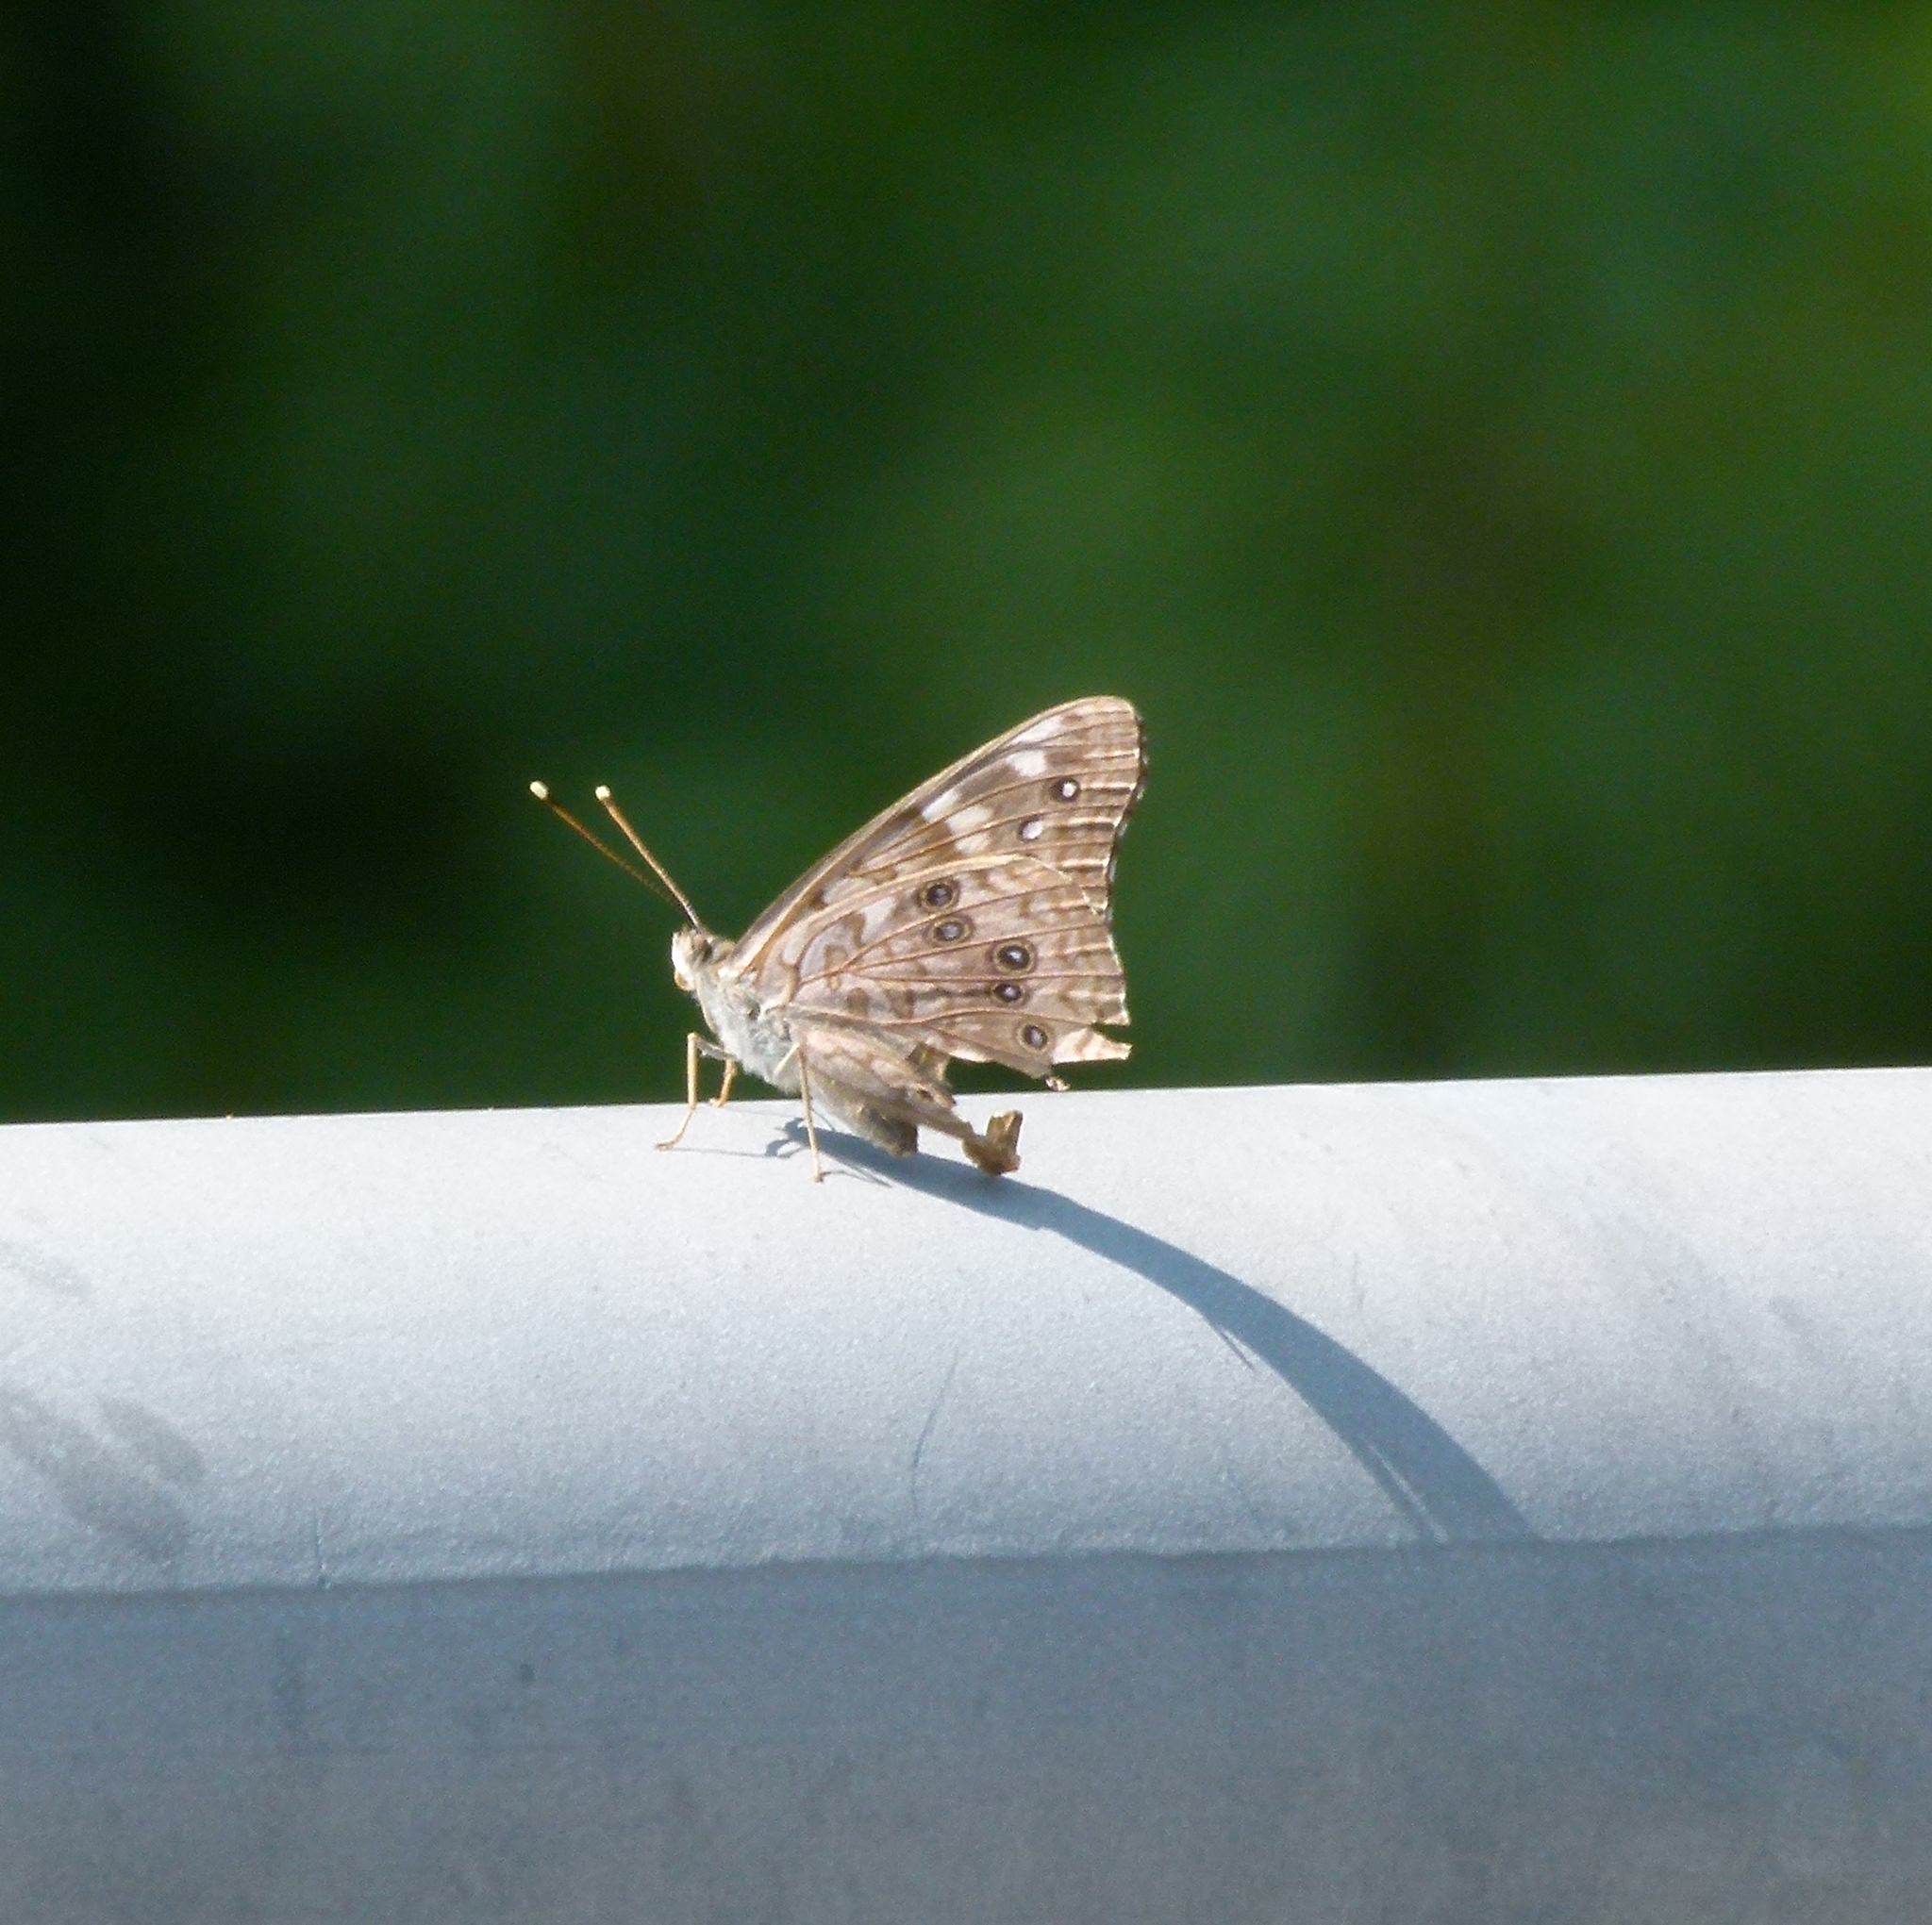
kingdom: Animalia
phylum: Arthropoda
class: Insecta
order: Lepidoptera
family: Nymphalidae
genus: Asterocampa
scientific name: Asterocampa celtis
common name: Hackberry emperor
